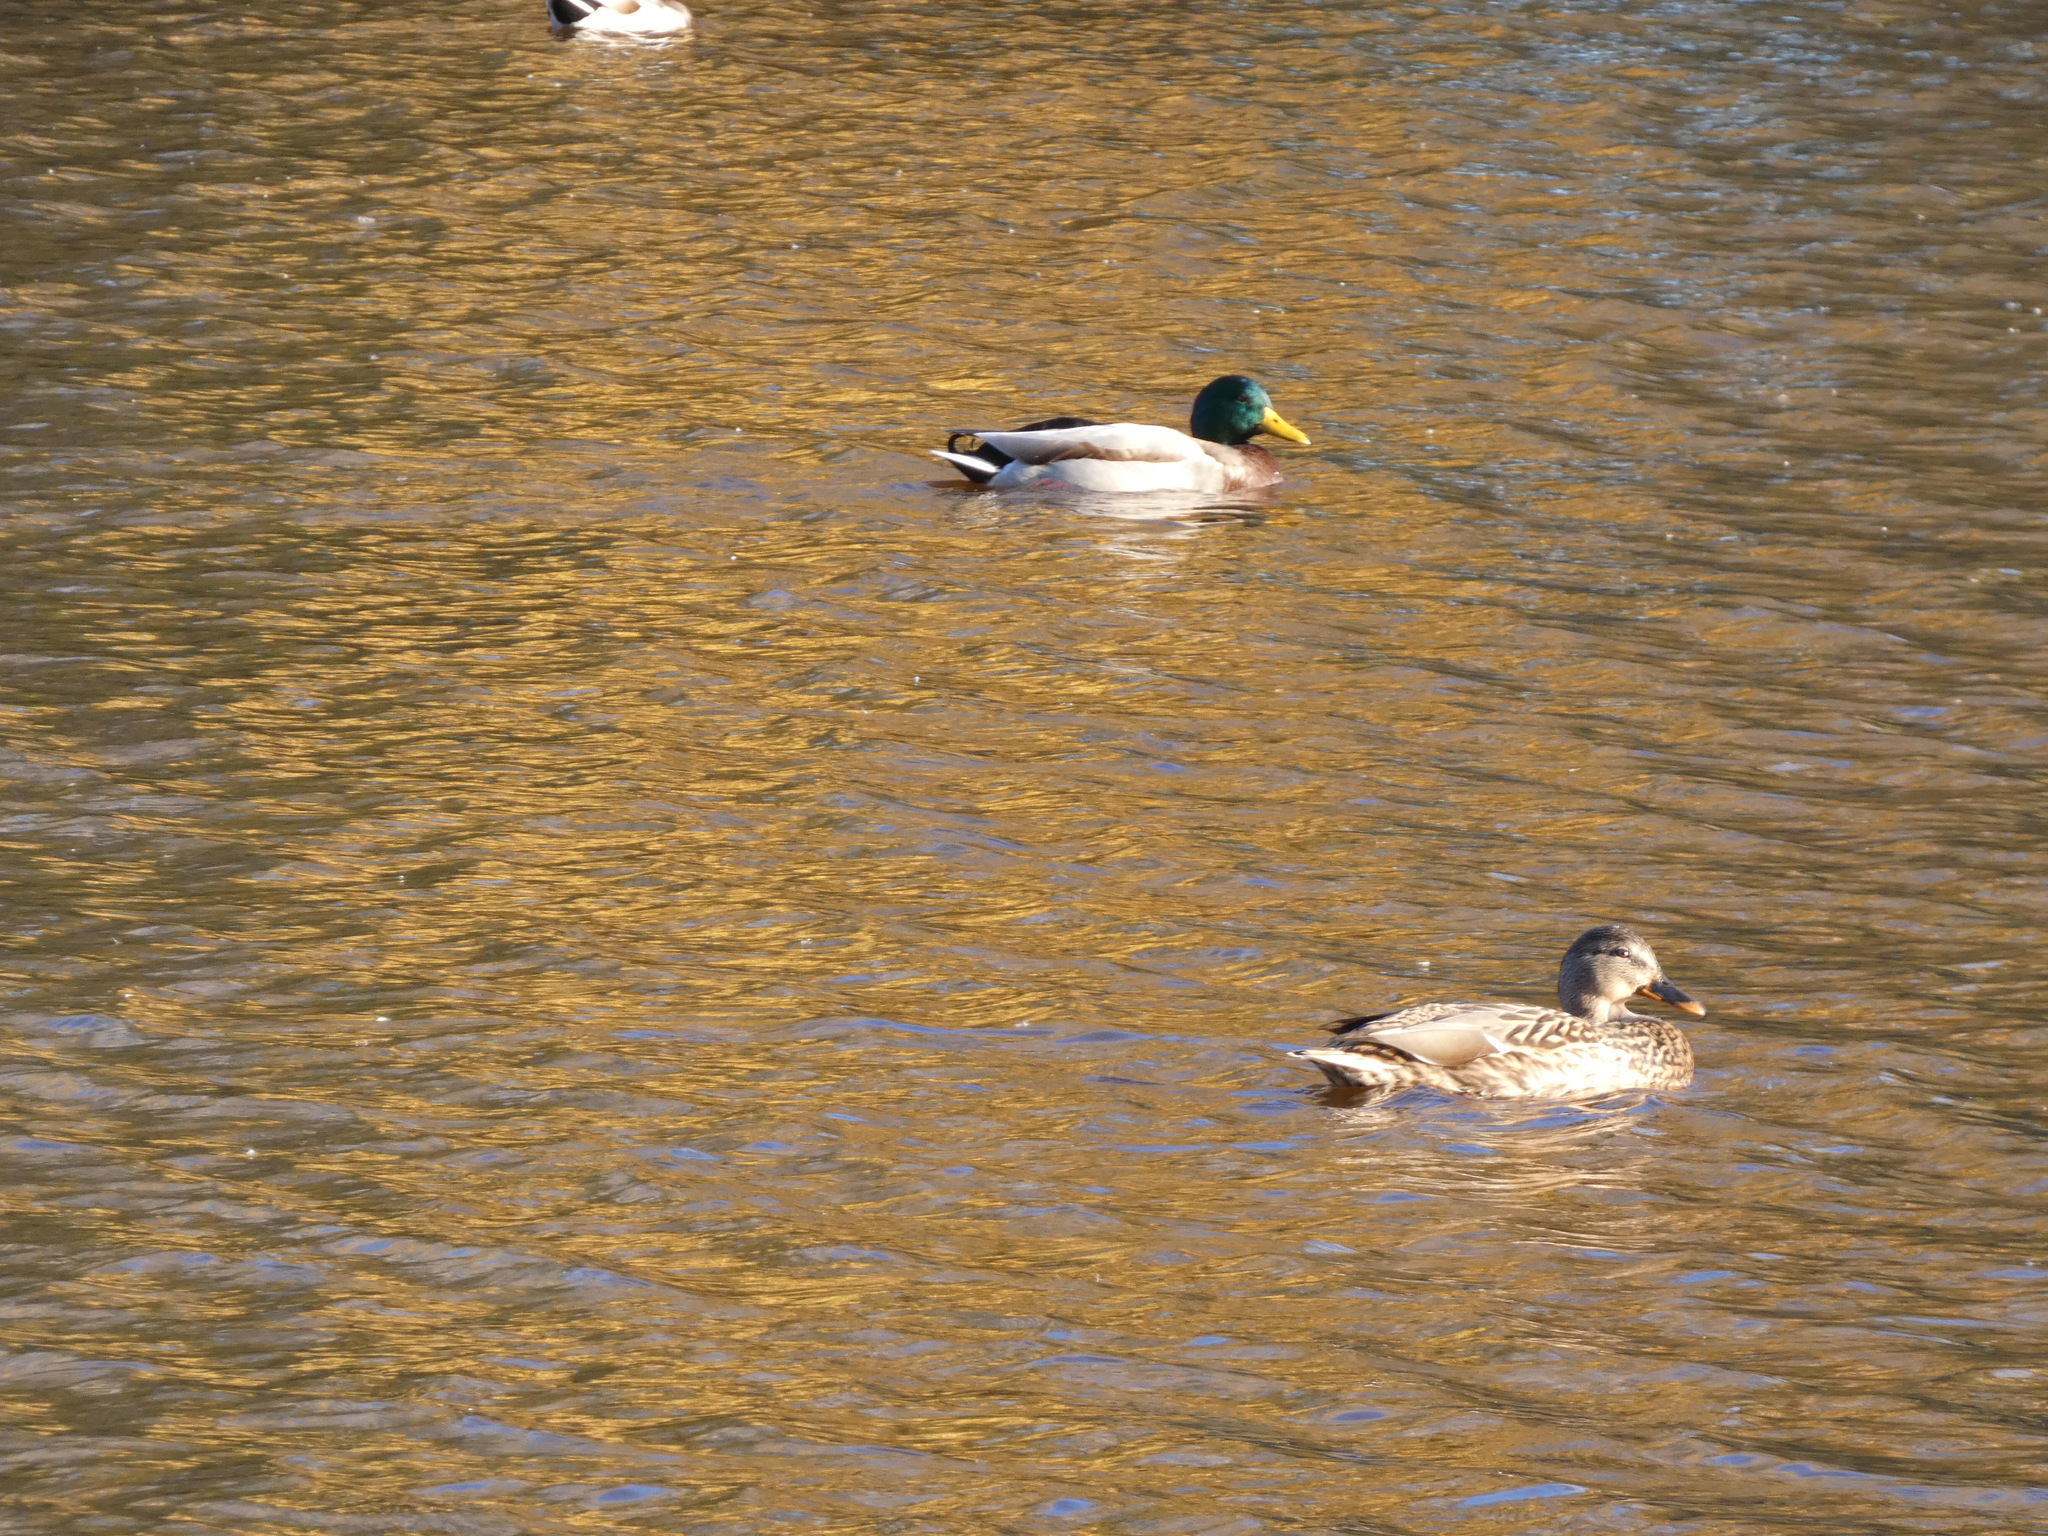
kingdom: Animalia
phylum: Chordata
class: Aves
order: Anseriformes
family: Anatidae
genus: Anas
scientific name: Anas platyrhynchos
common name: Mallard
